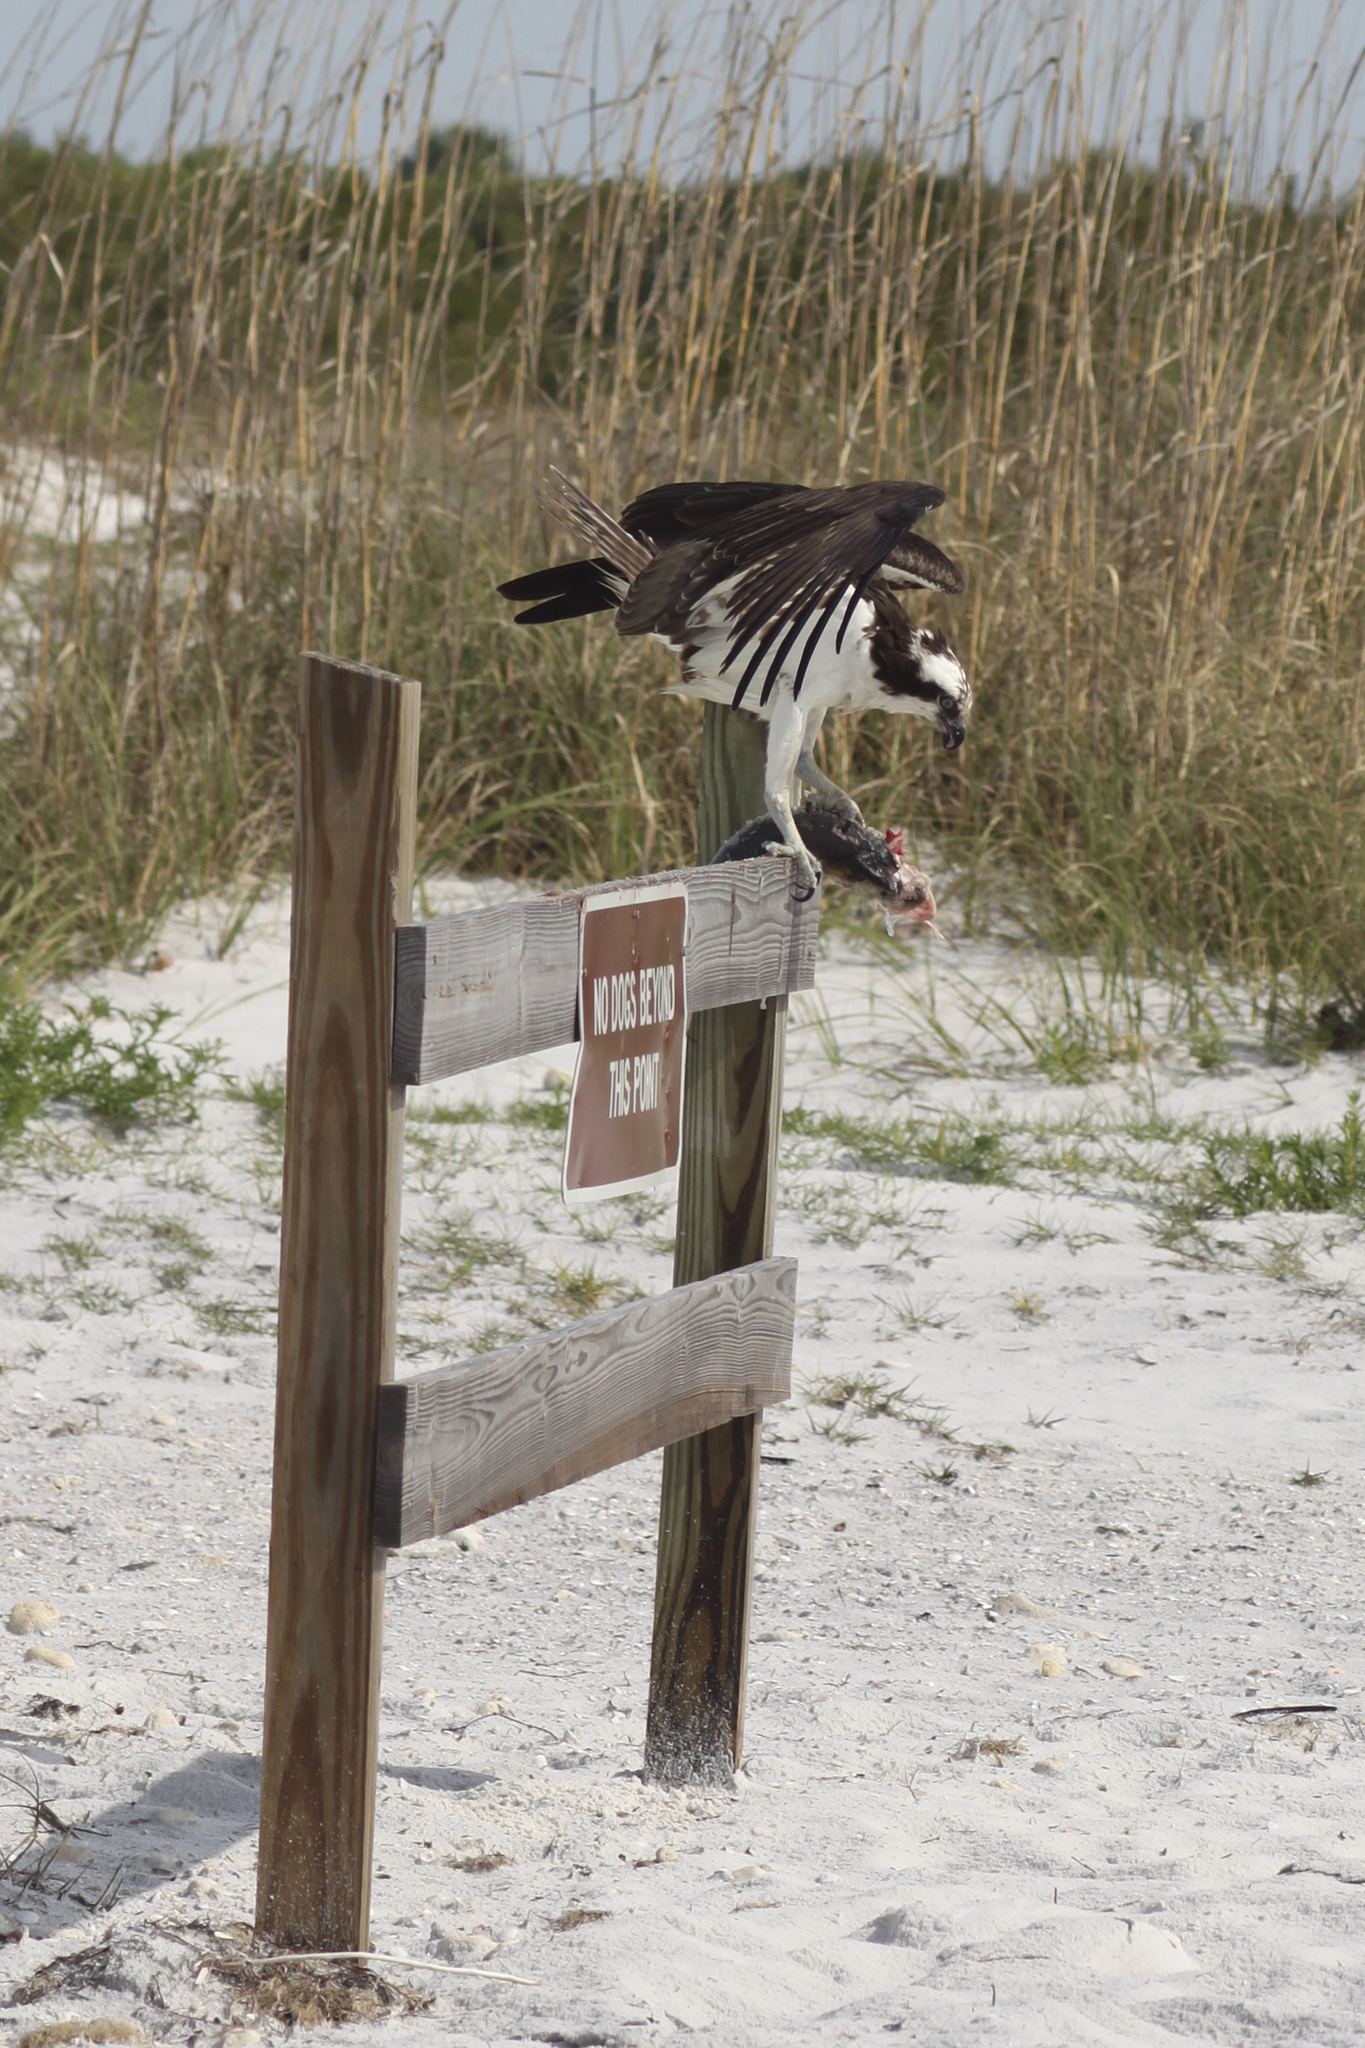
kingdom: Animalia
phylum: Chordata
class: Aves
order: Accipitriformes
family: Pandionidae
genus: Pandion
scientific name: Pandion haliaetus
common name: Osprey
